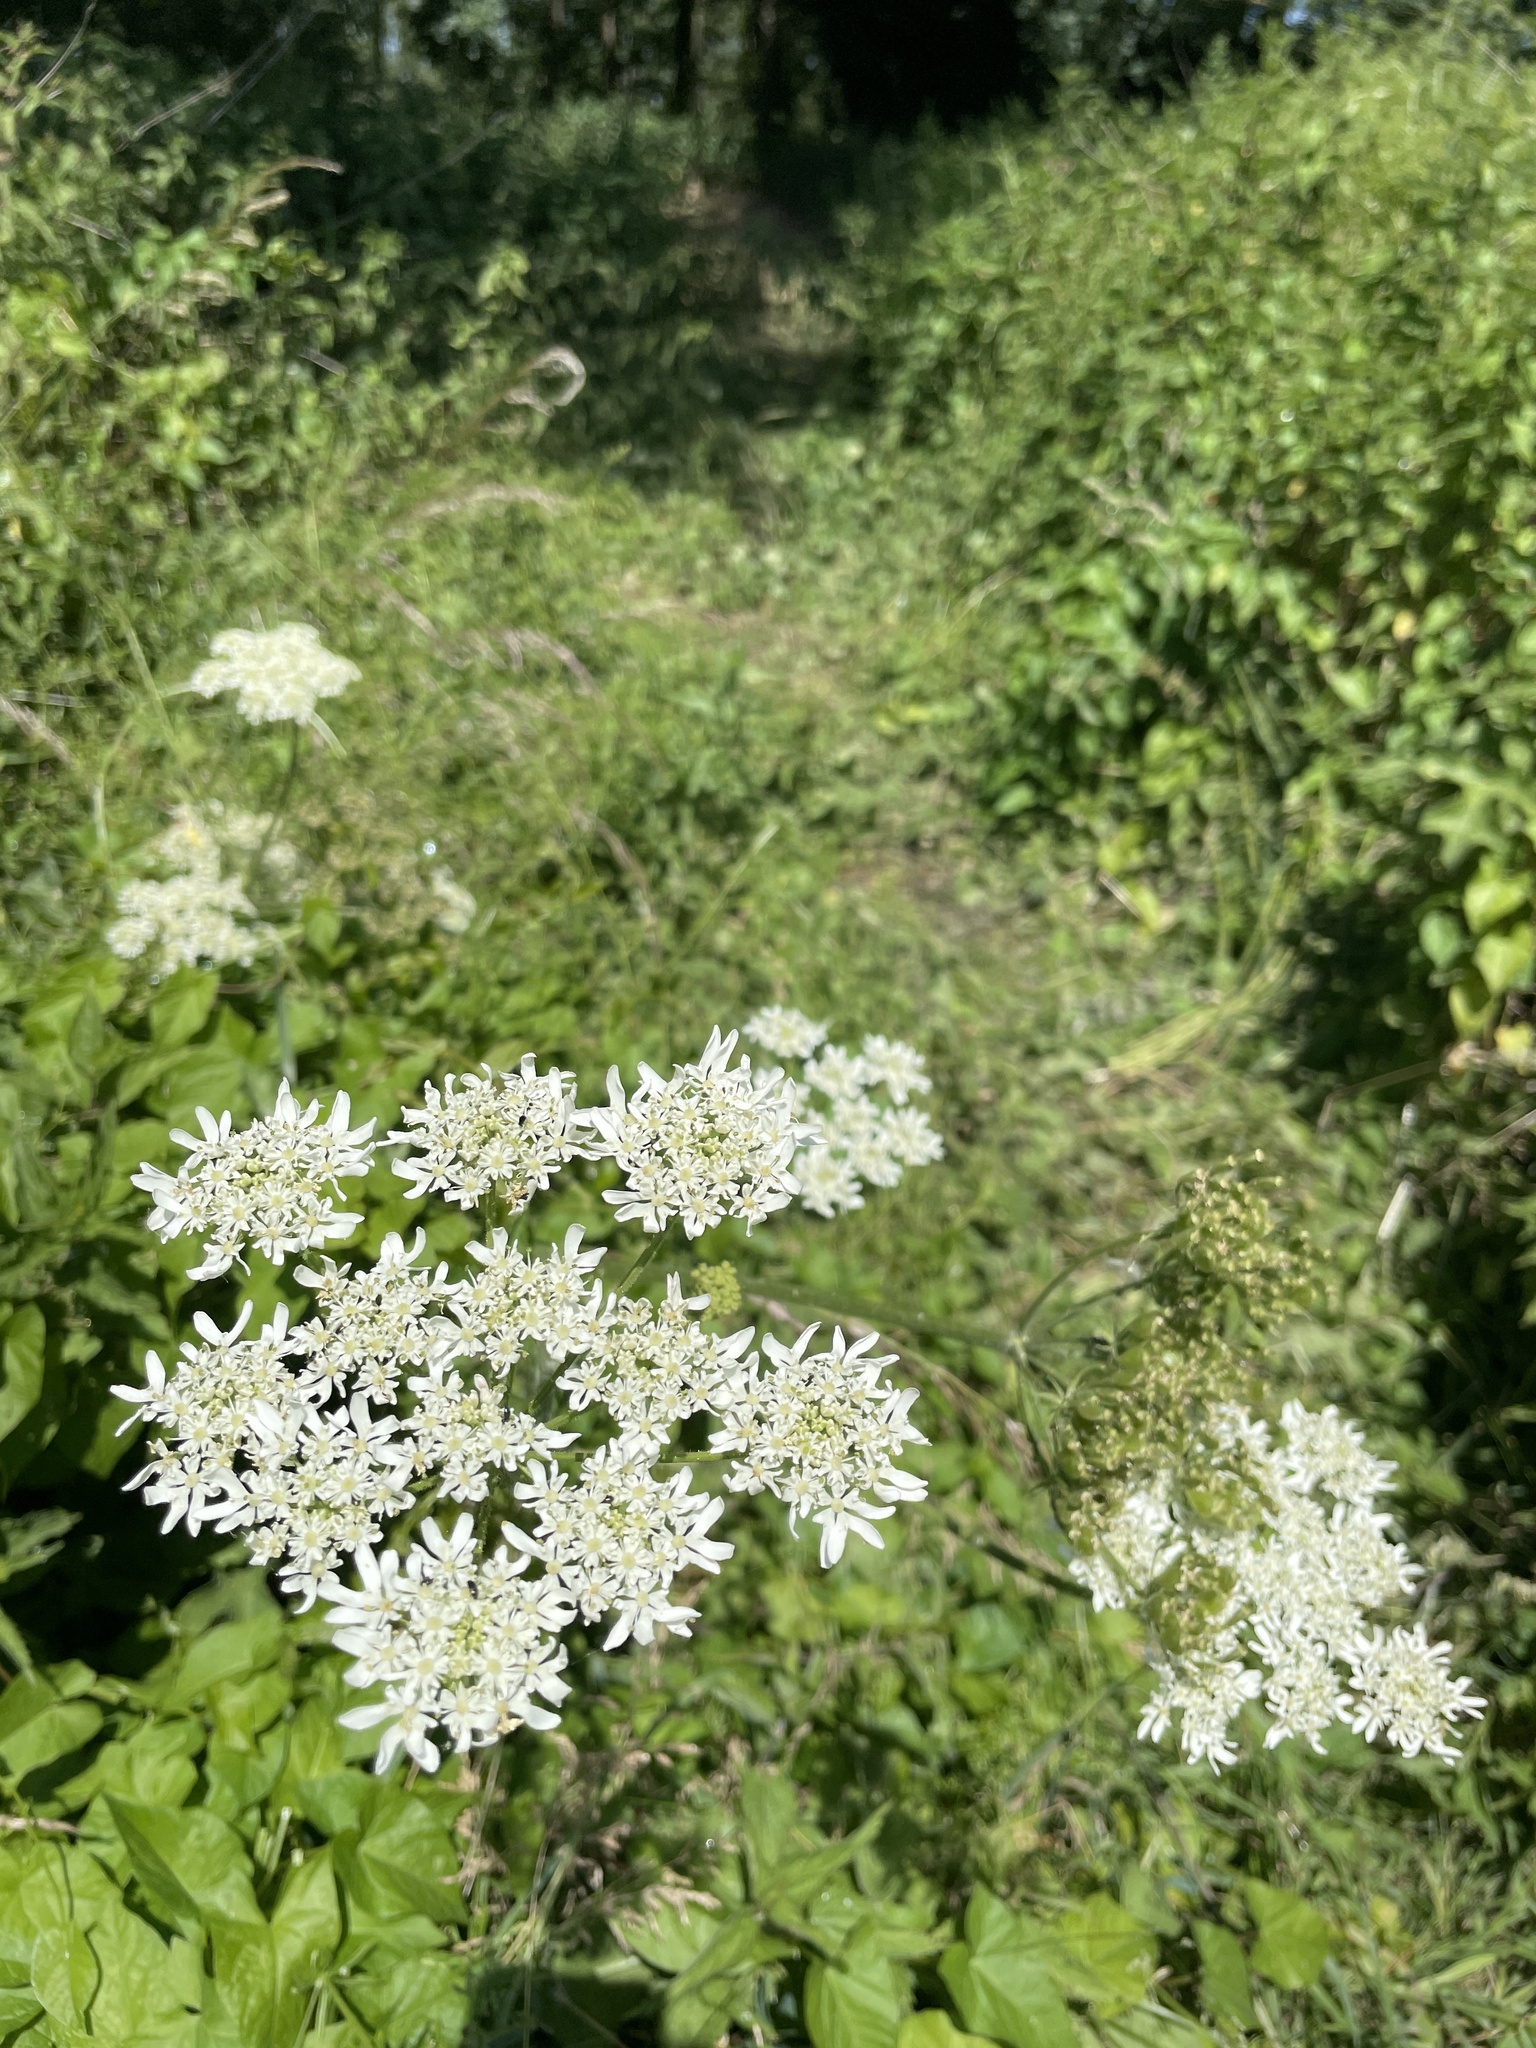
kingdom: Plantae
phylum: Tracheophyta
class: Magnoliopsida
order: Apiales
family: Apiaceae
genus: Heracleum
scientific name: Heracleum sphondylium
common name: Hogweed
